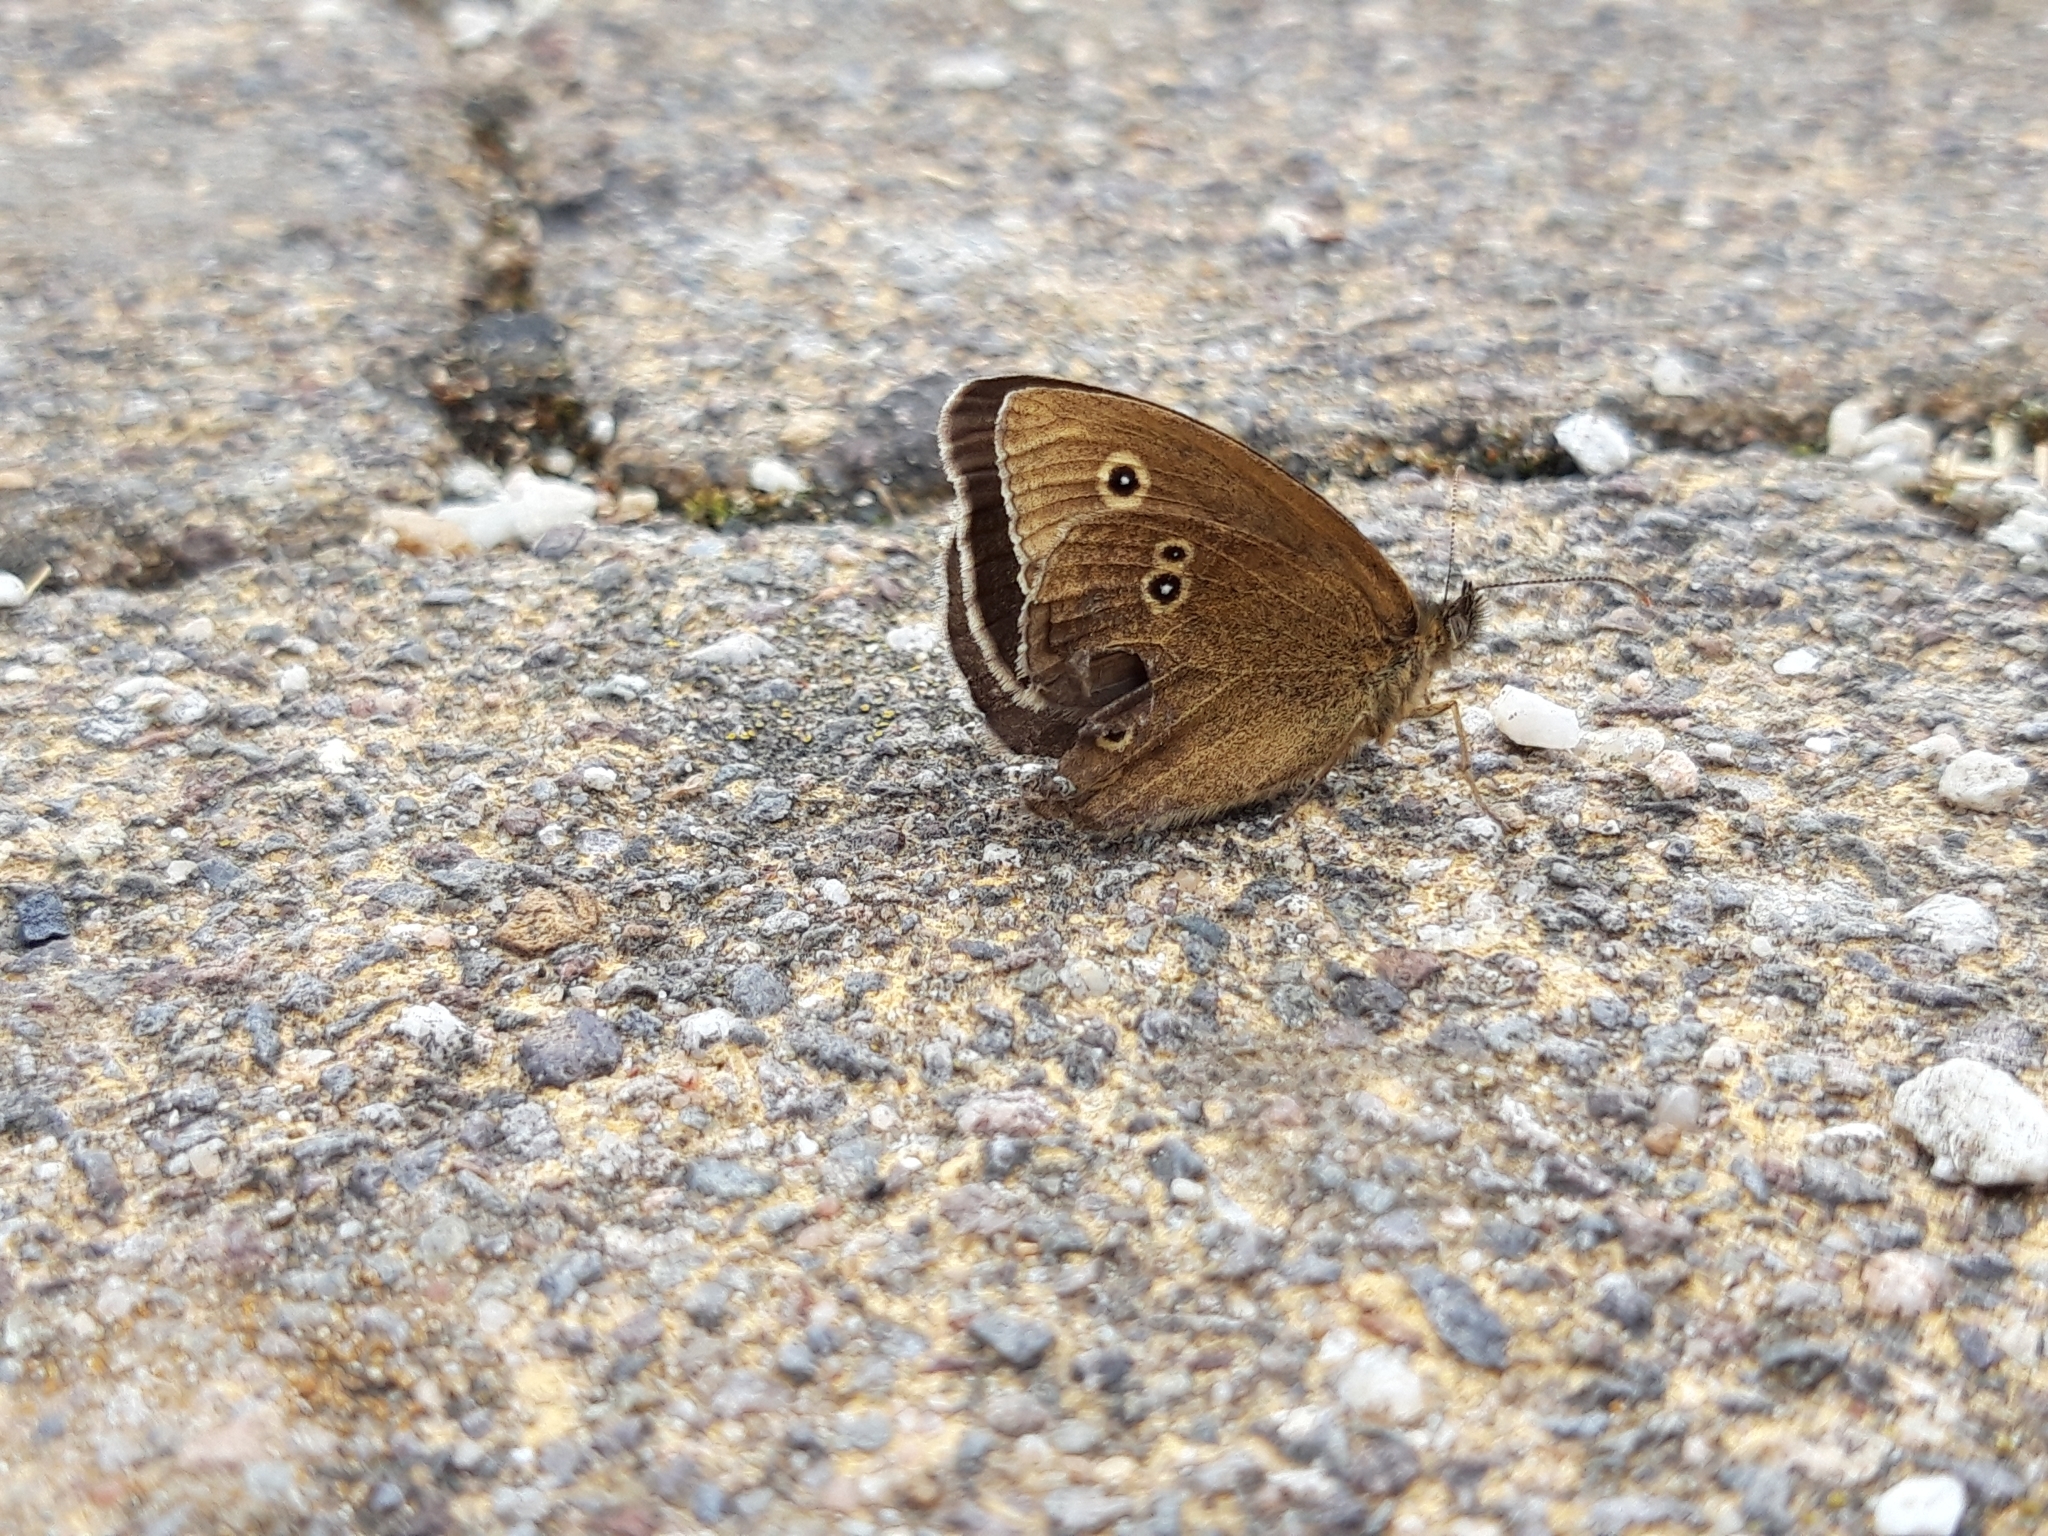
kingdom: Animalia
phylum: Arthropoda
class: Insecta
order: Lepidoptera
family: Nymphalidae
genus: Aphantopus
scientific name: Aphantopus hyperantus
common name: Ringlet
